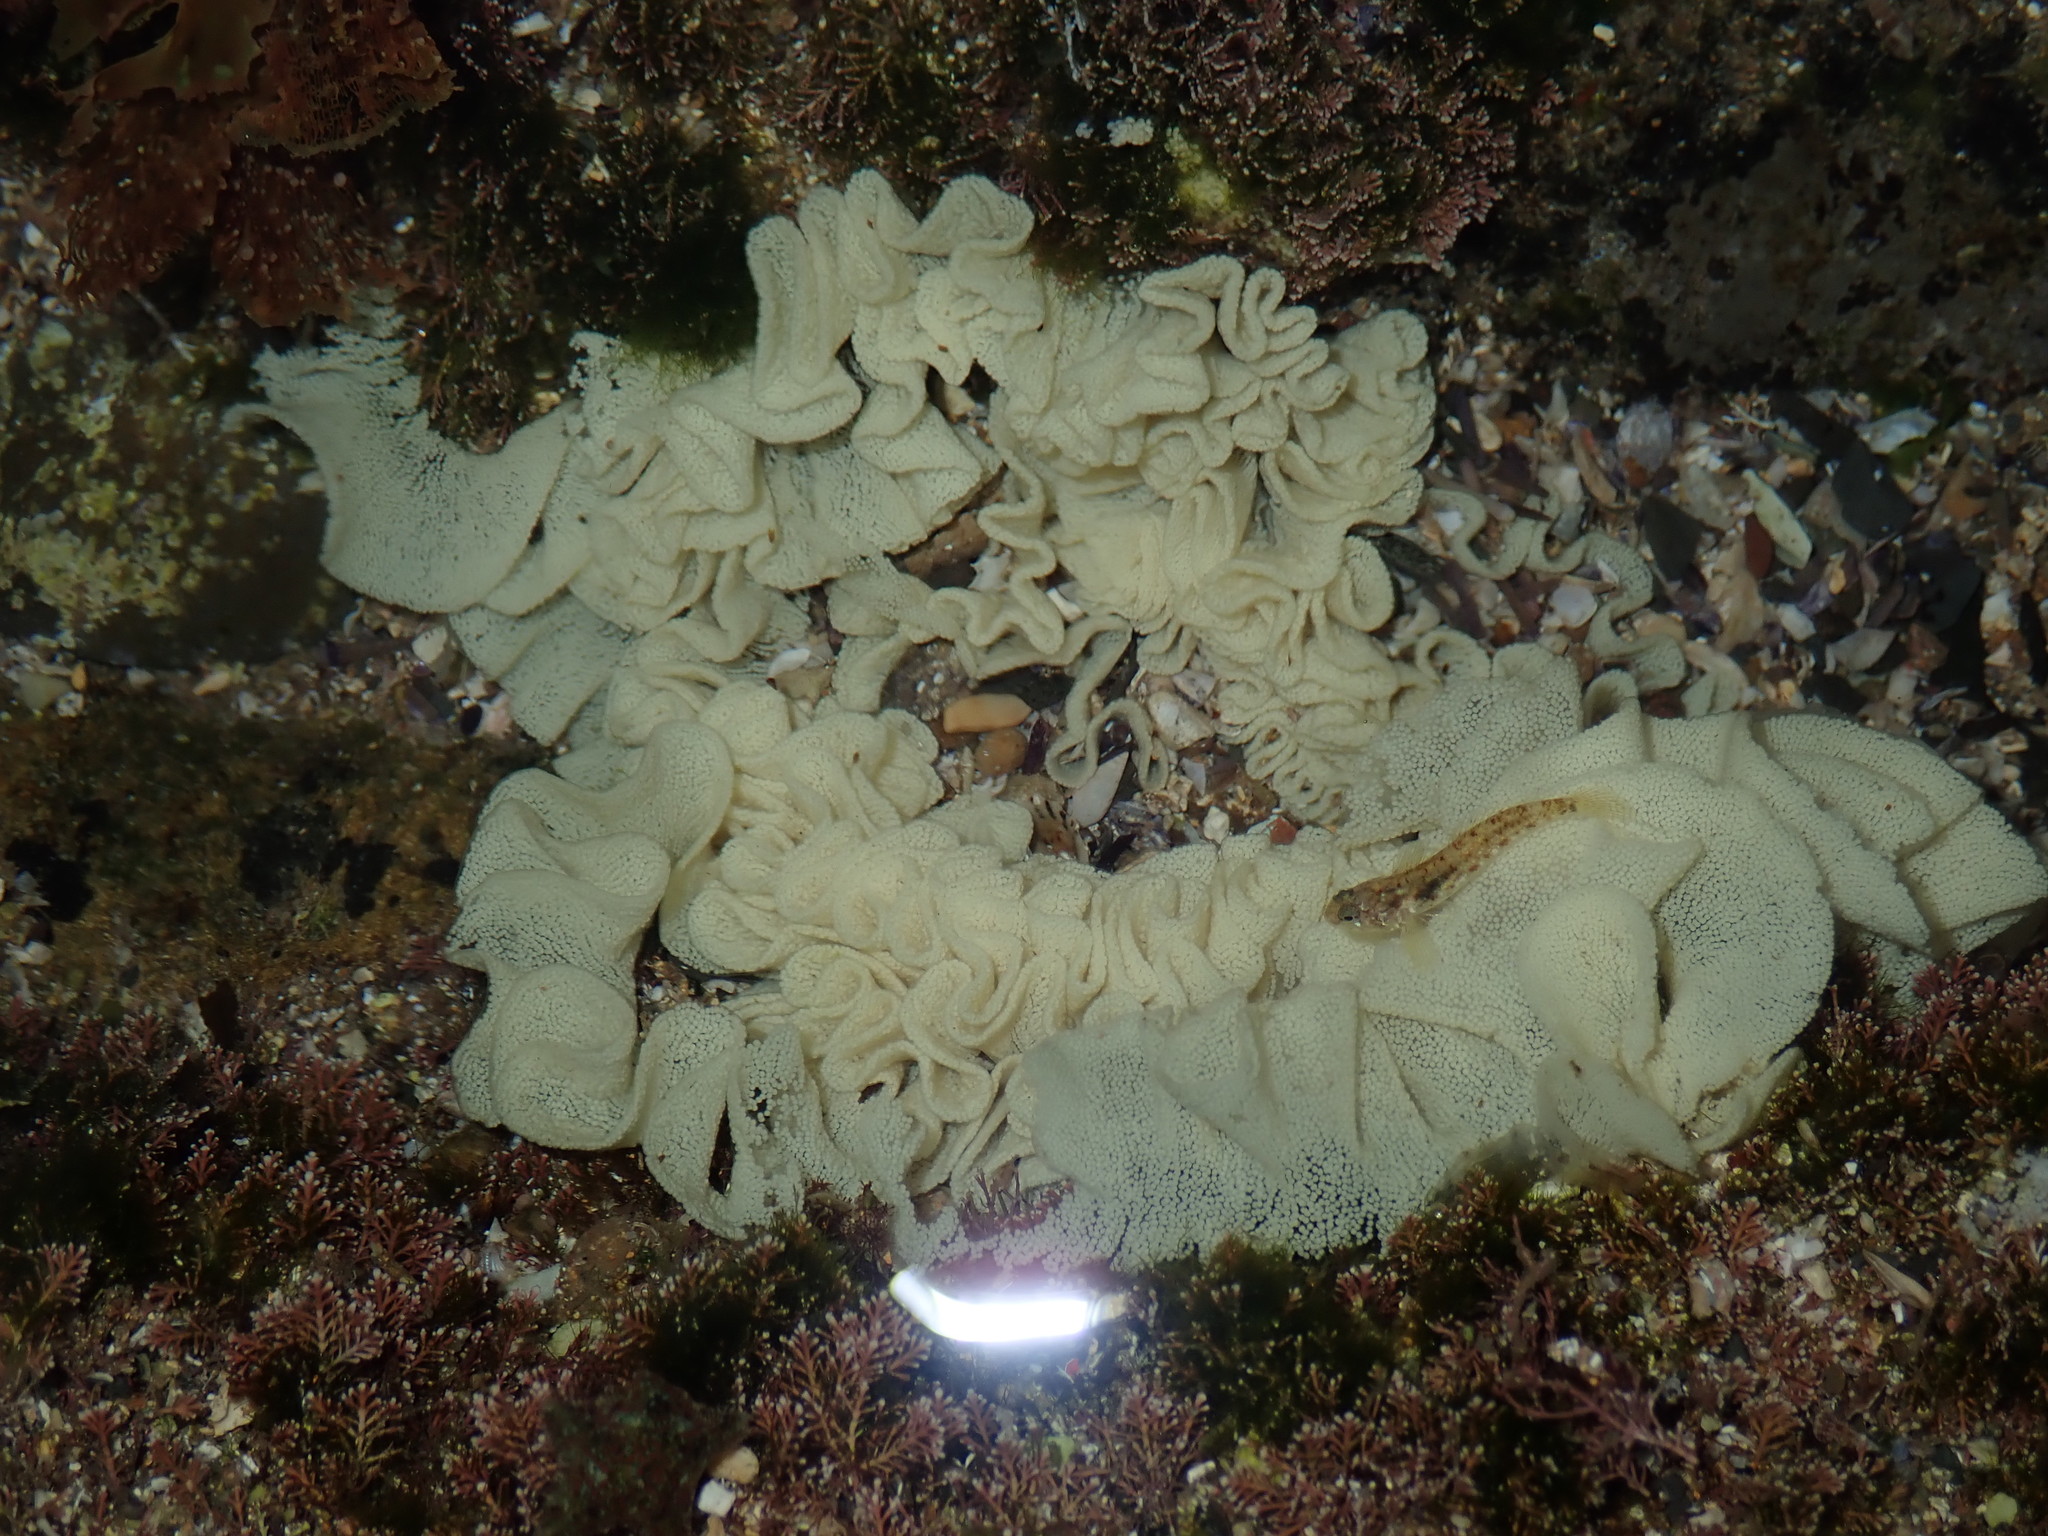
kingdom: Animalia
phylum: Mollusca
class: Gastropoda
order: Cephalaspidea
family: Aplustridae
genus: Hydatina
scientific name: Hydatina physis
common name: Brown-line paperbubble
